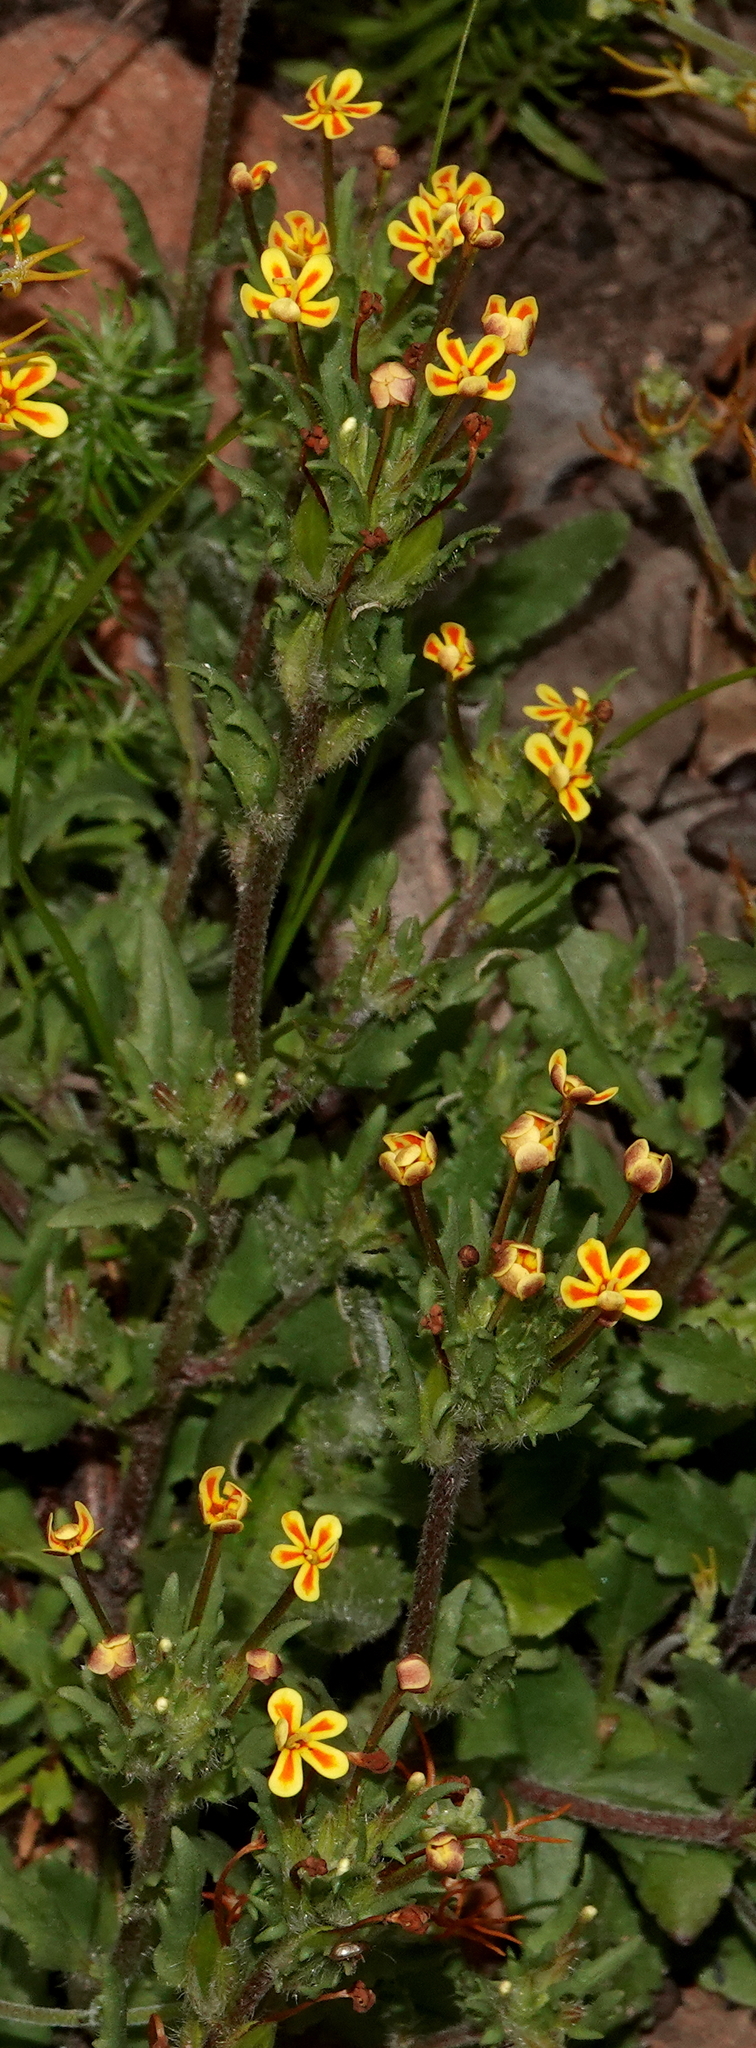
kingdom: Plantae
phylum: Tracheophyta
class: Magnoliopsida
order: Lamiales
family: Scrophulariaceae
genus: Zaluzianskya
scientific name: Zaluzianskya divaricata
